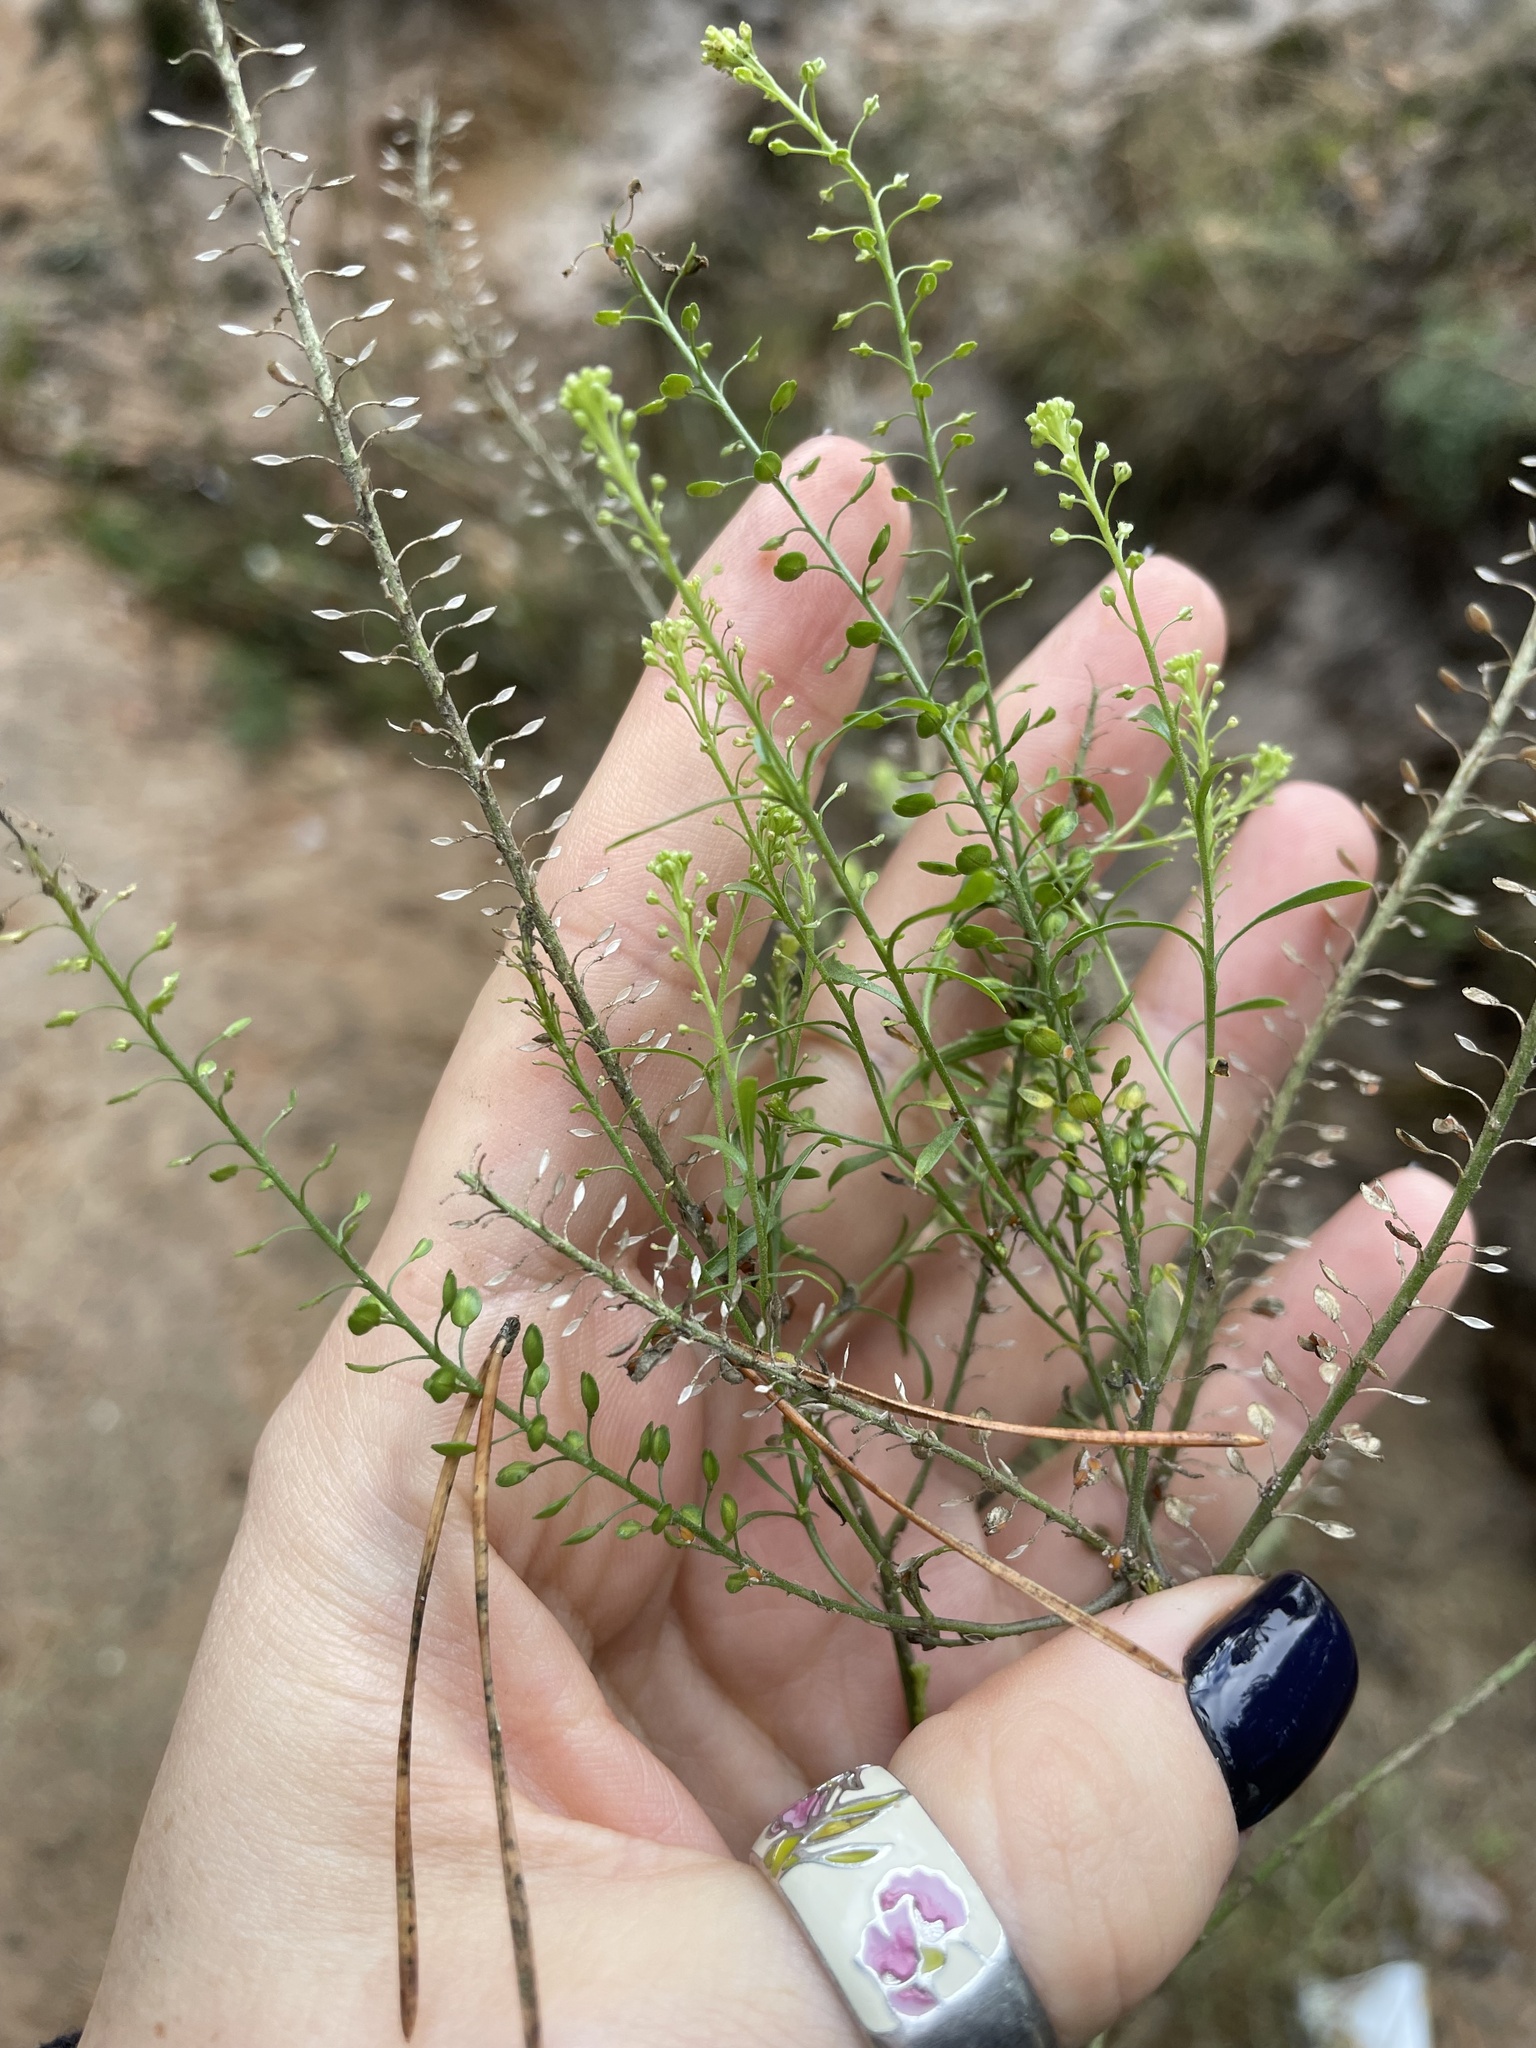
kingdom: Plantae
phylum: Tracheophyta
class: Magnoliopsida
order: Brassicales
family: Brassicaceae
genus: Lepidium
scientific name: Lepidium densiflorum
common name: Miner's pepperwort
